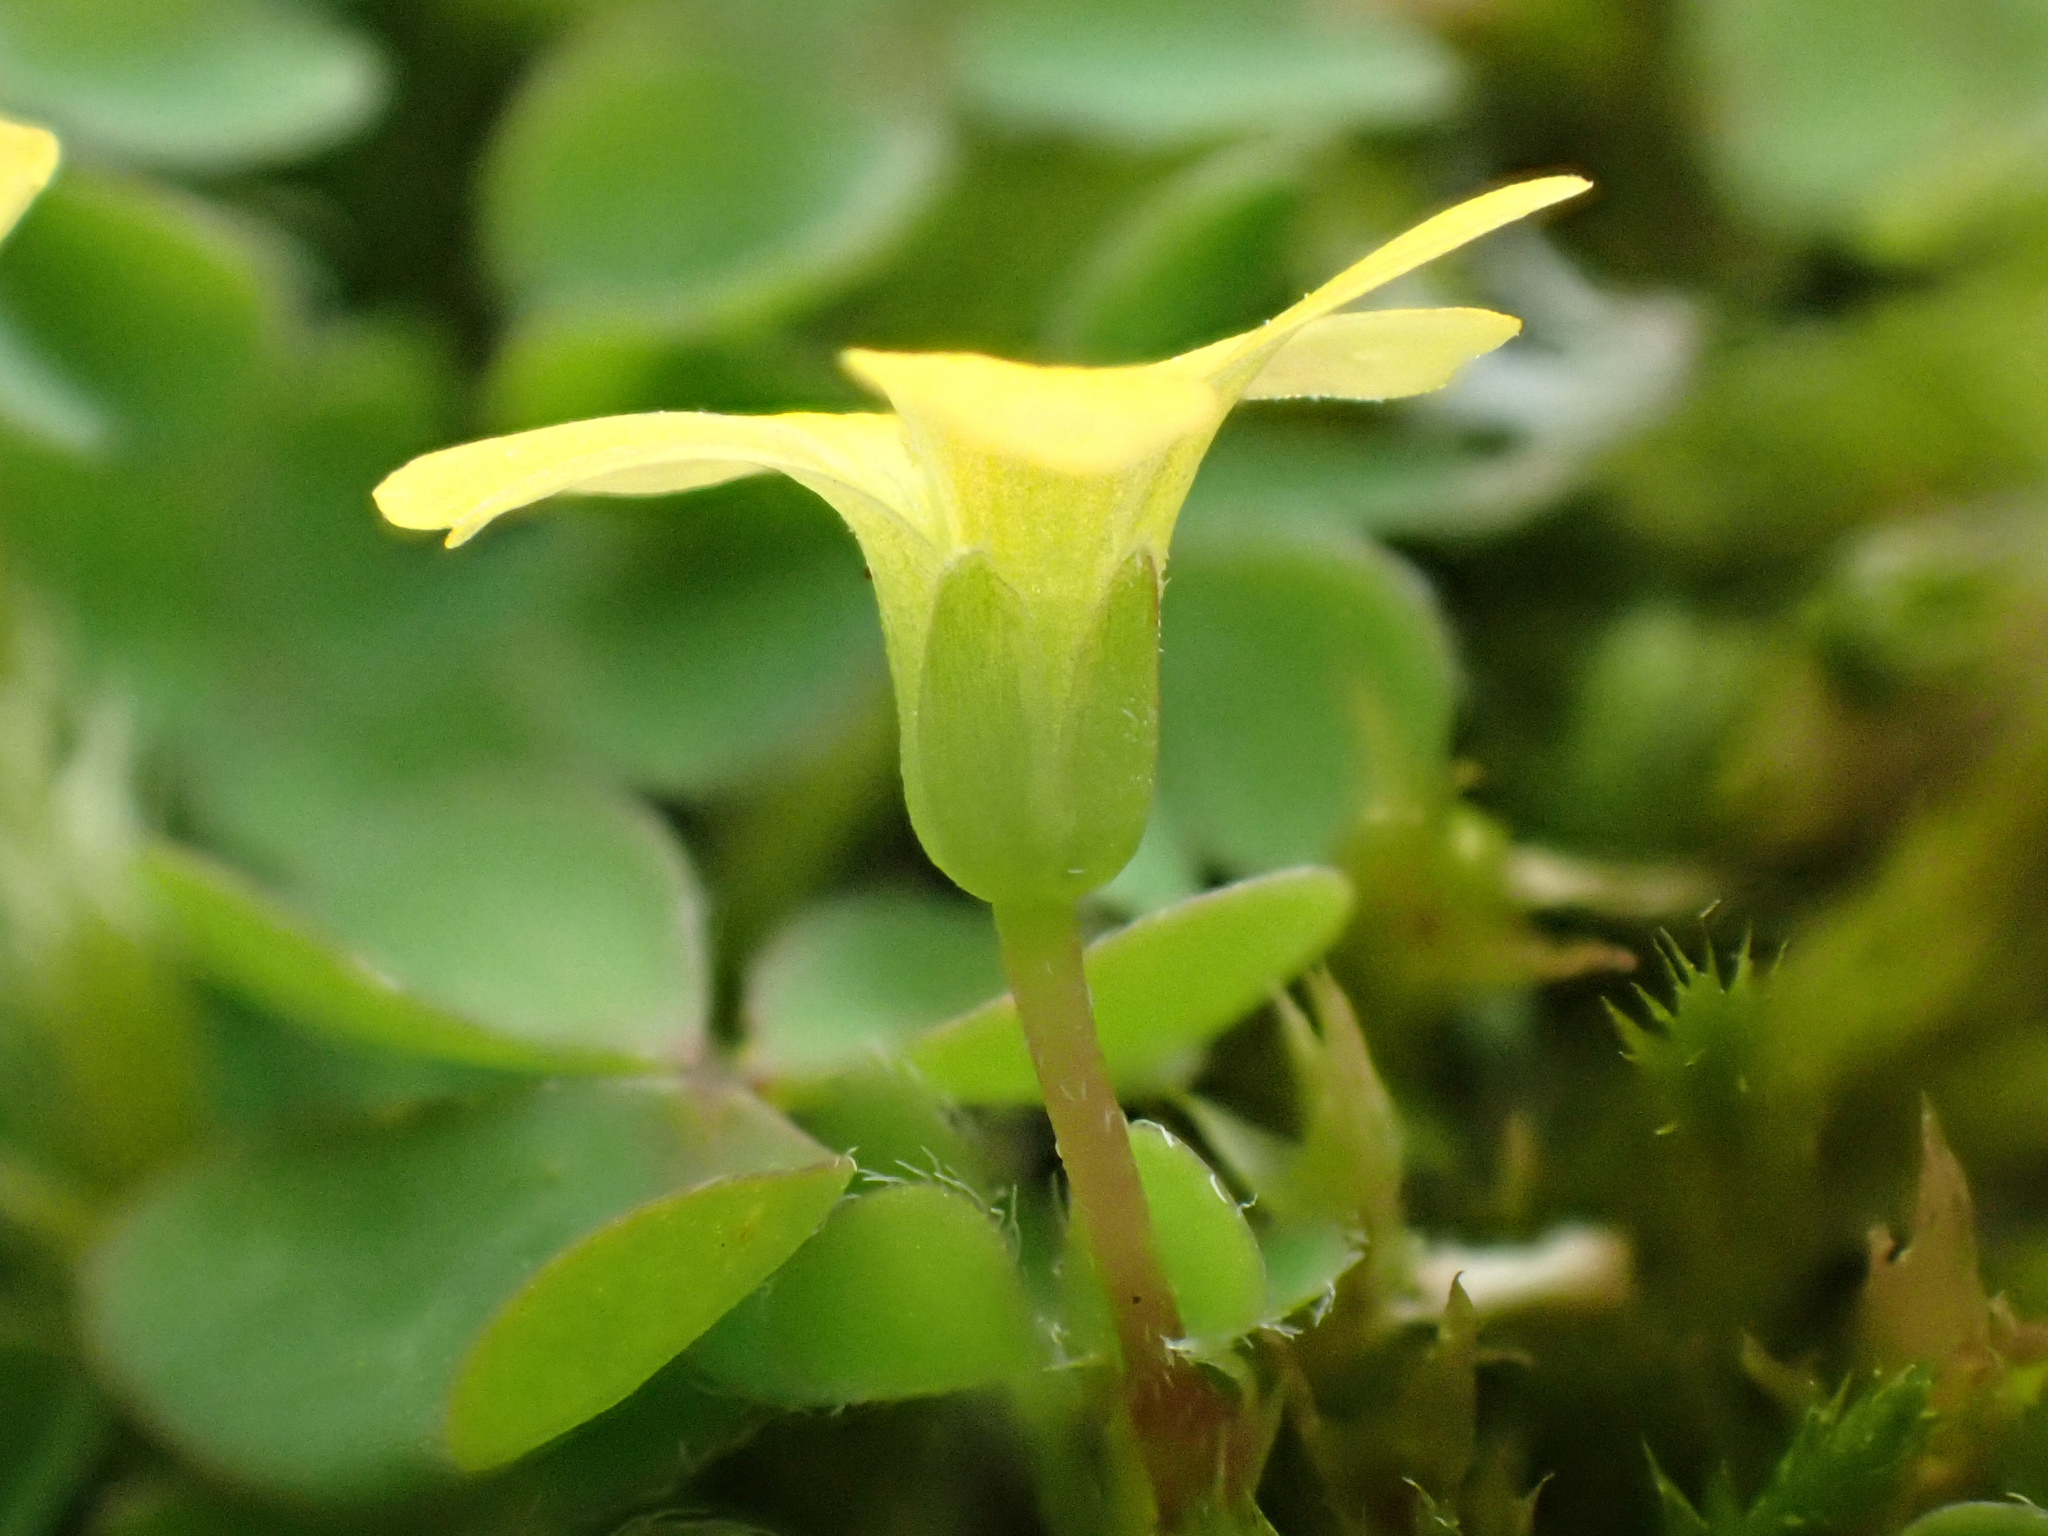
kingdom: Plantae
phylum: Tracheophyta
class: Magnoliopsida
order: Oxalidales
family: Oxalidaceae
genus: Oxalis
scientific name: Oxalis corniculata
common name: Procumbent yellow-sorrel
